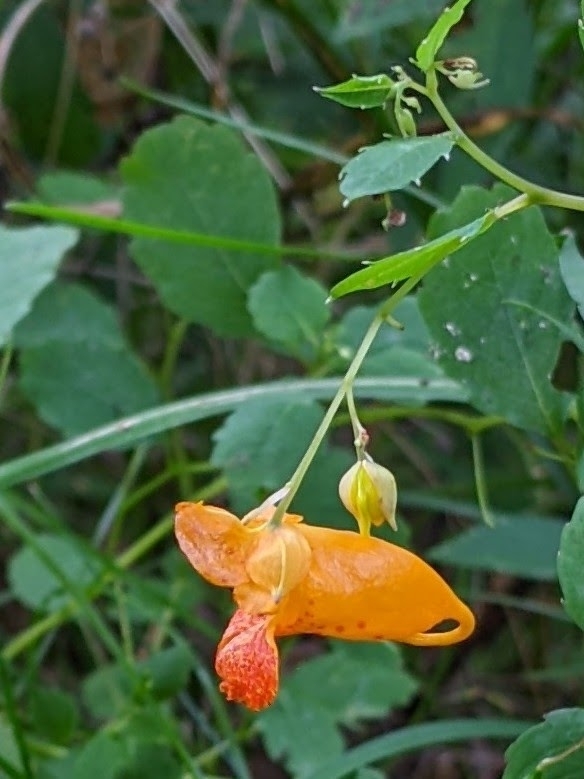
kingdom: Plantae
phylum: Tracheophyta
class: Magnoliopsida
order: Ericales
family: Balsaminaceae
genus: Impatiens
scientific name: Impatiens capensis
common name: Orange balsam
